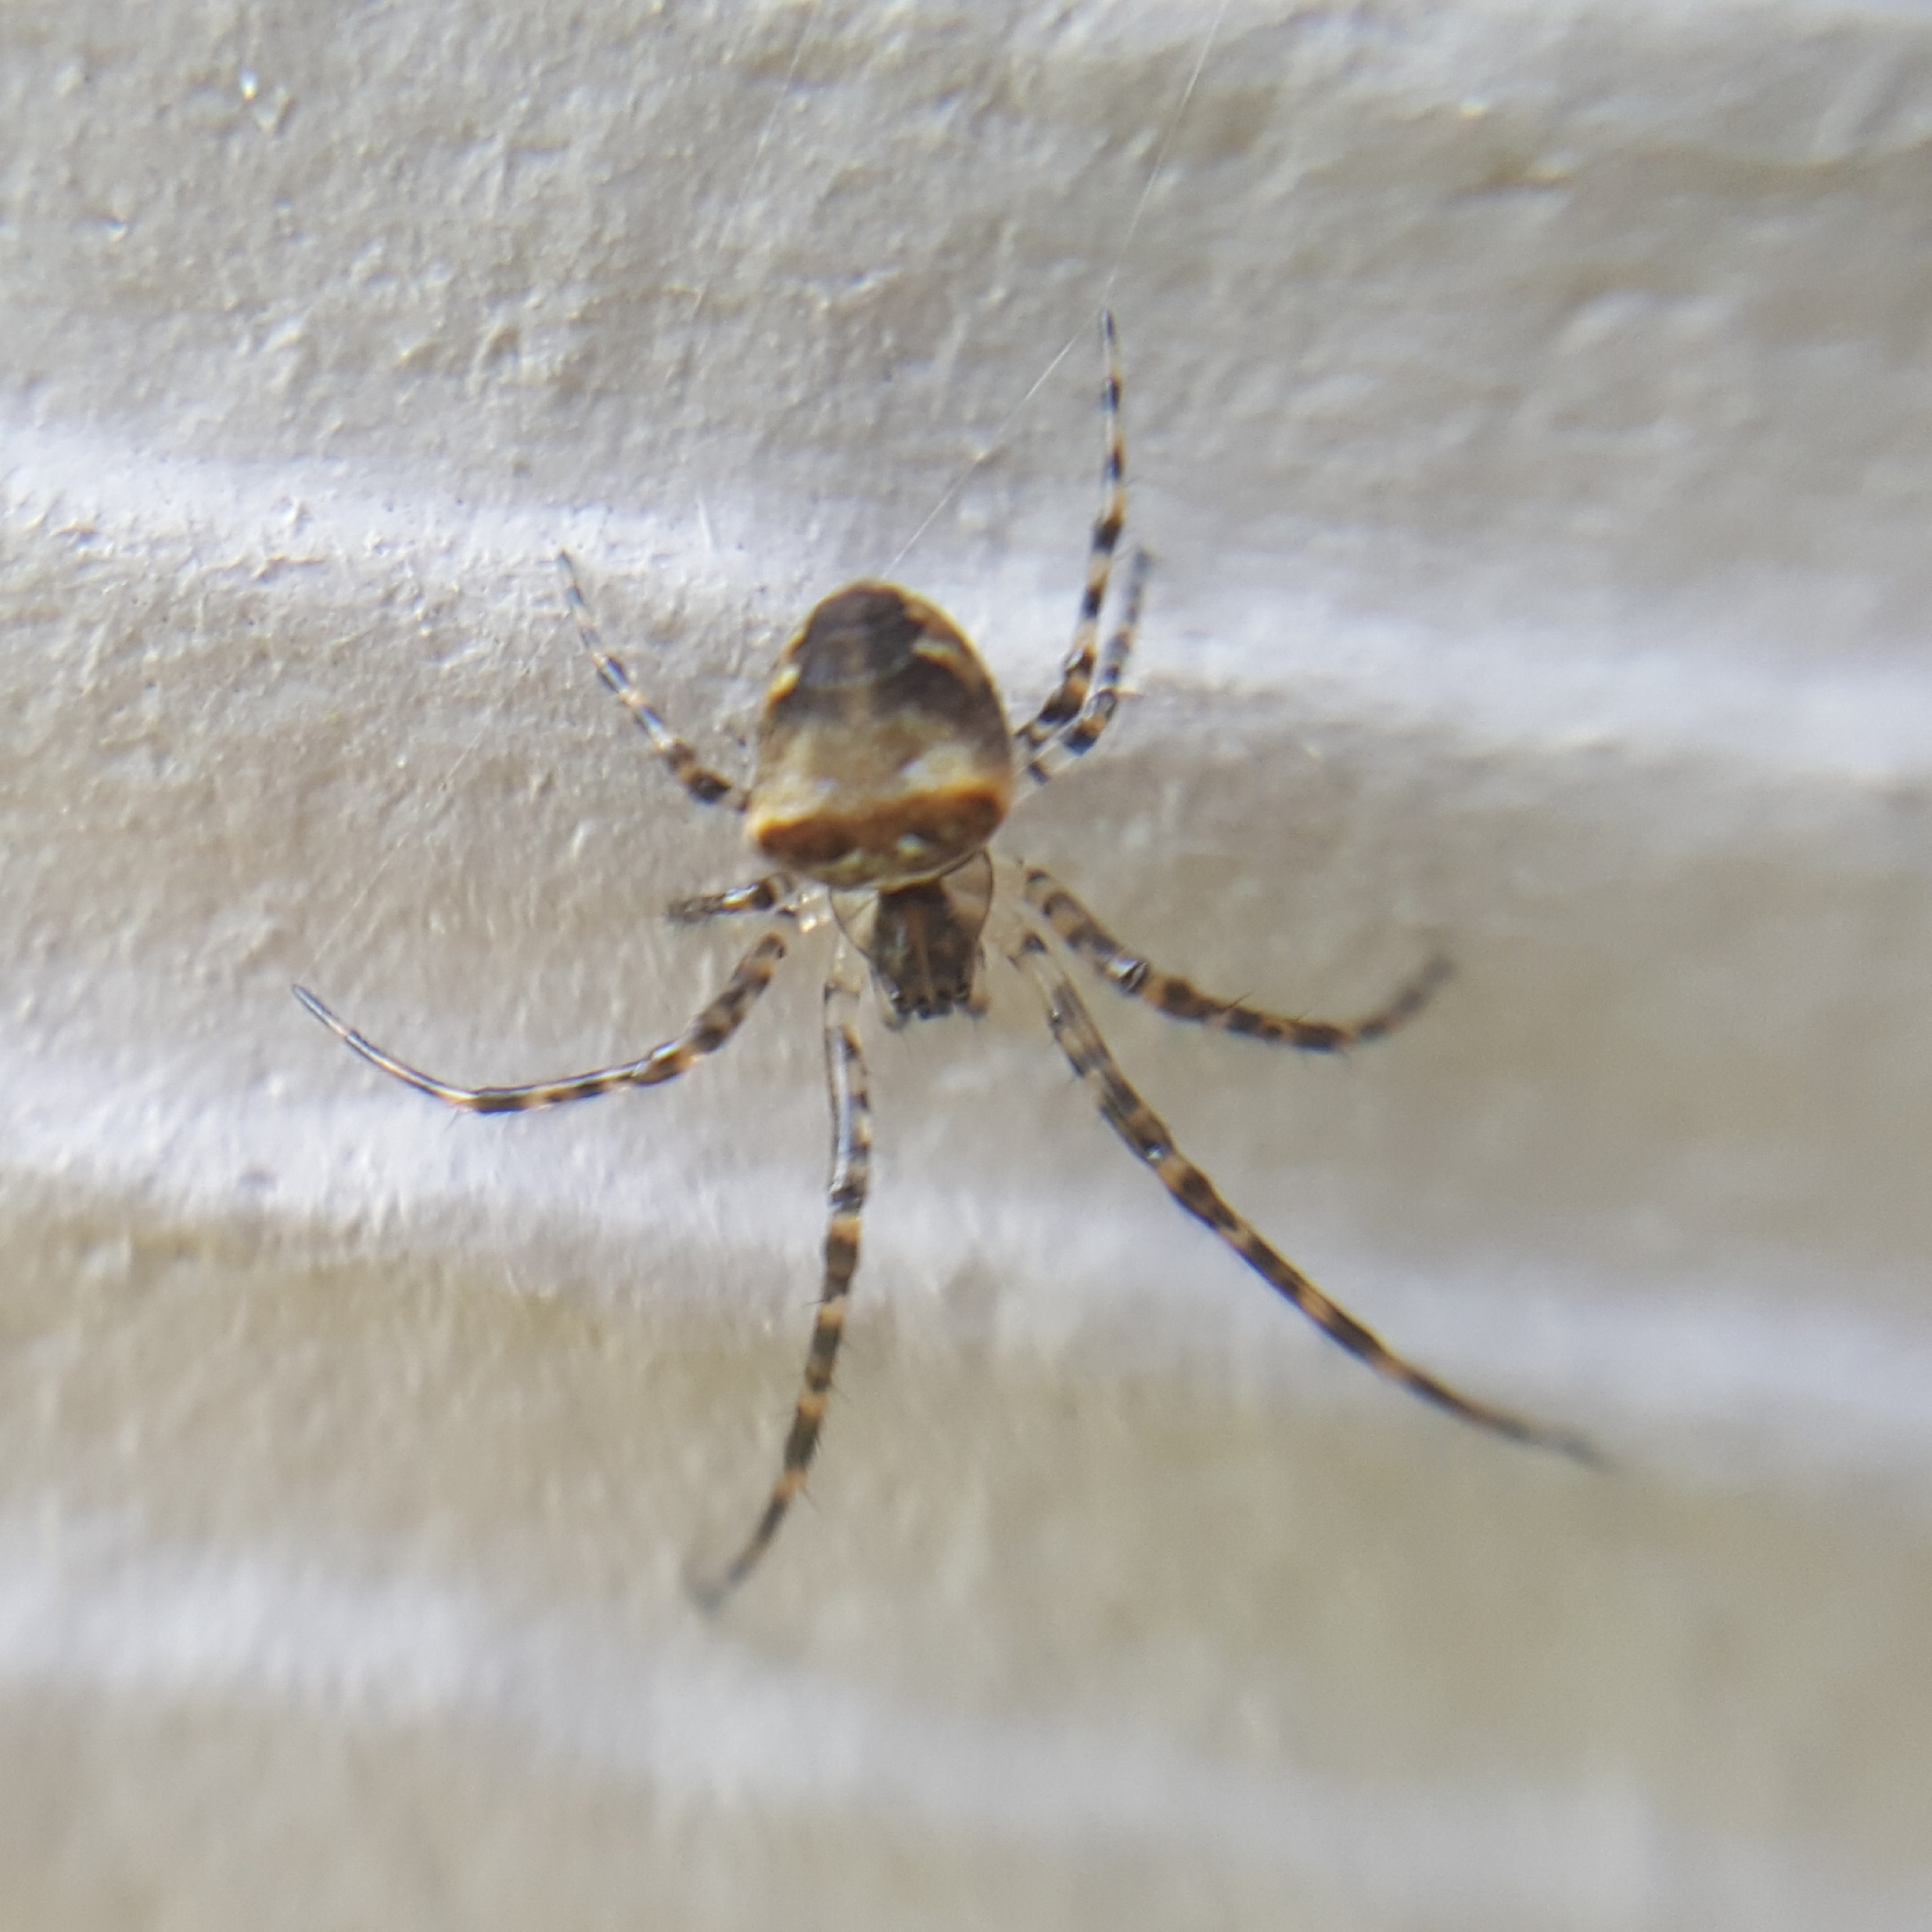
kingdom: Animalia
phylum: Arthropoda
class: Arachnida
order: Araneae
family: Tetragnathidae
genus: Metellina
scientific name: Metellina mimetoides
